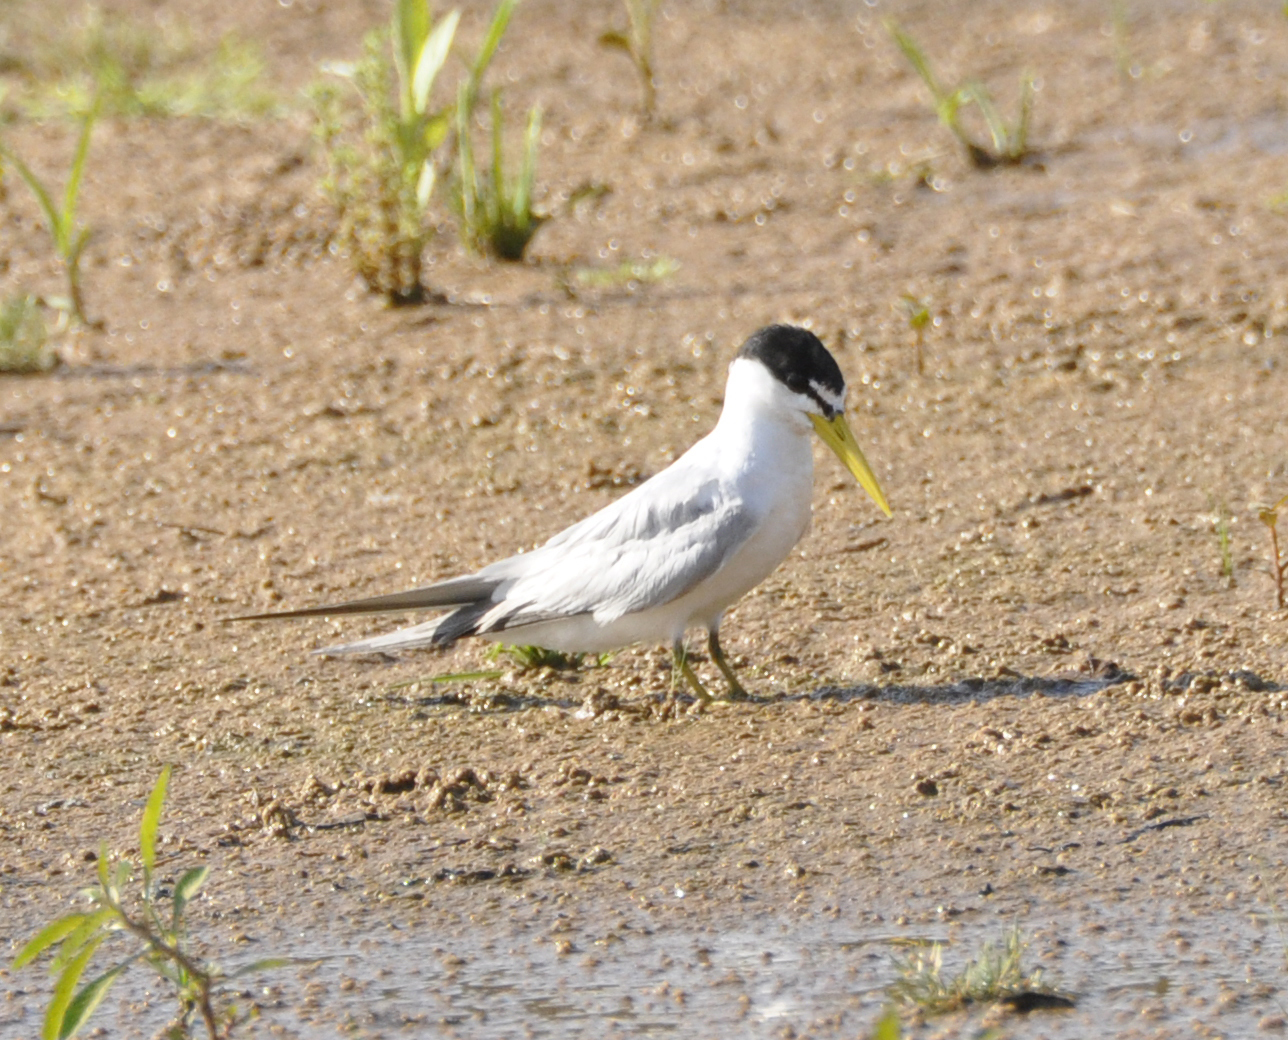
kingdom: Animalia
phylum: Chordata
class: Aves
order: Charadriiformes
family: Laridae
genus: Sternula
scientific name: Sternula superciliaris
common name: Yellow-billed tern
